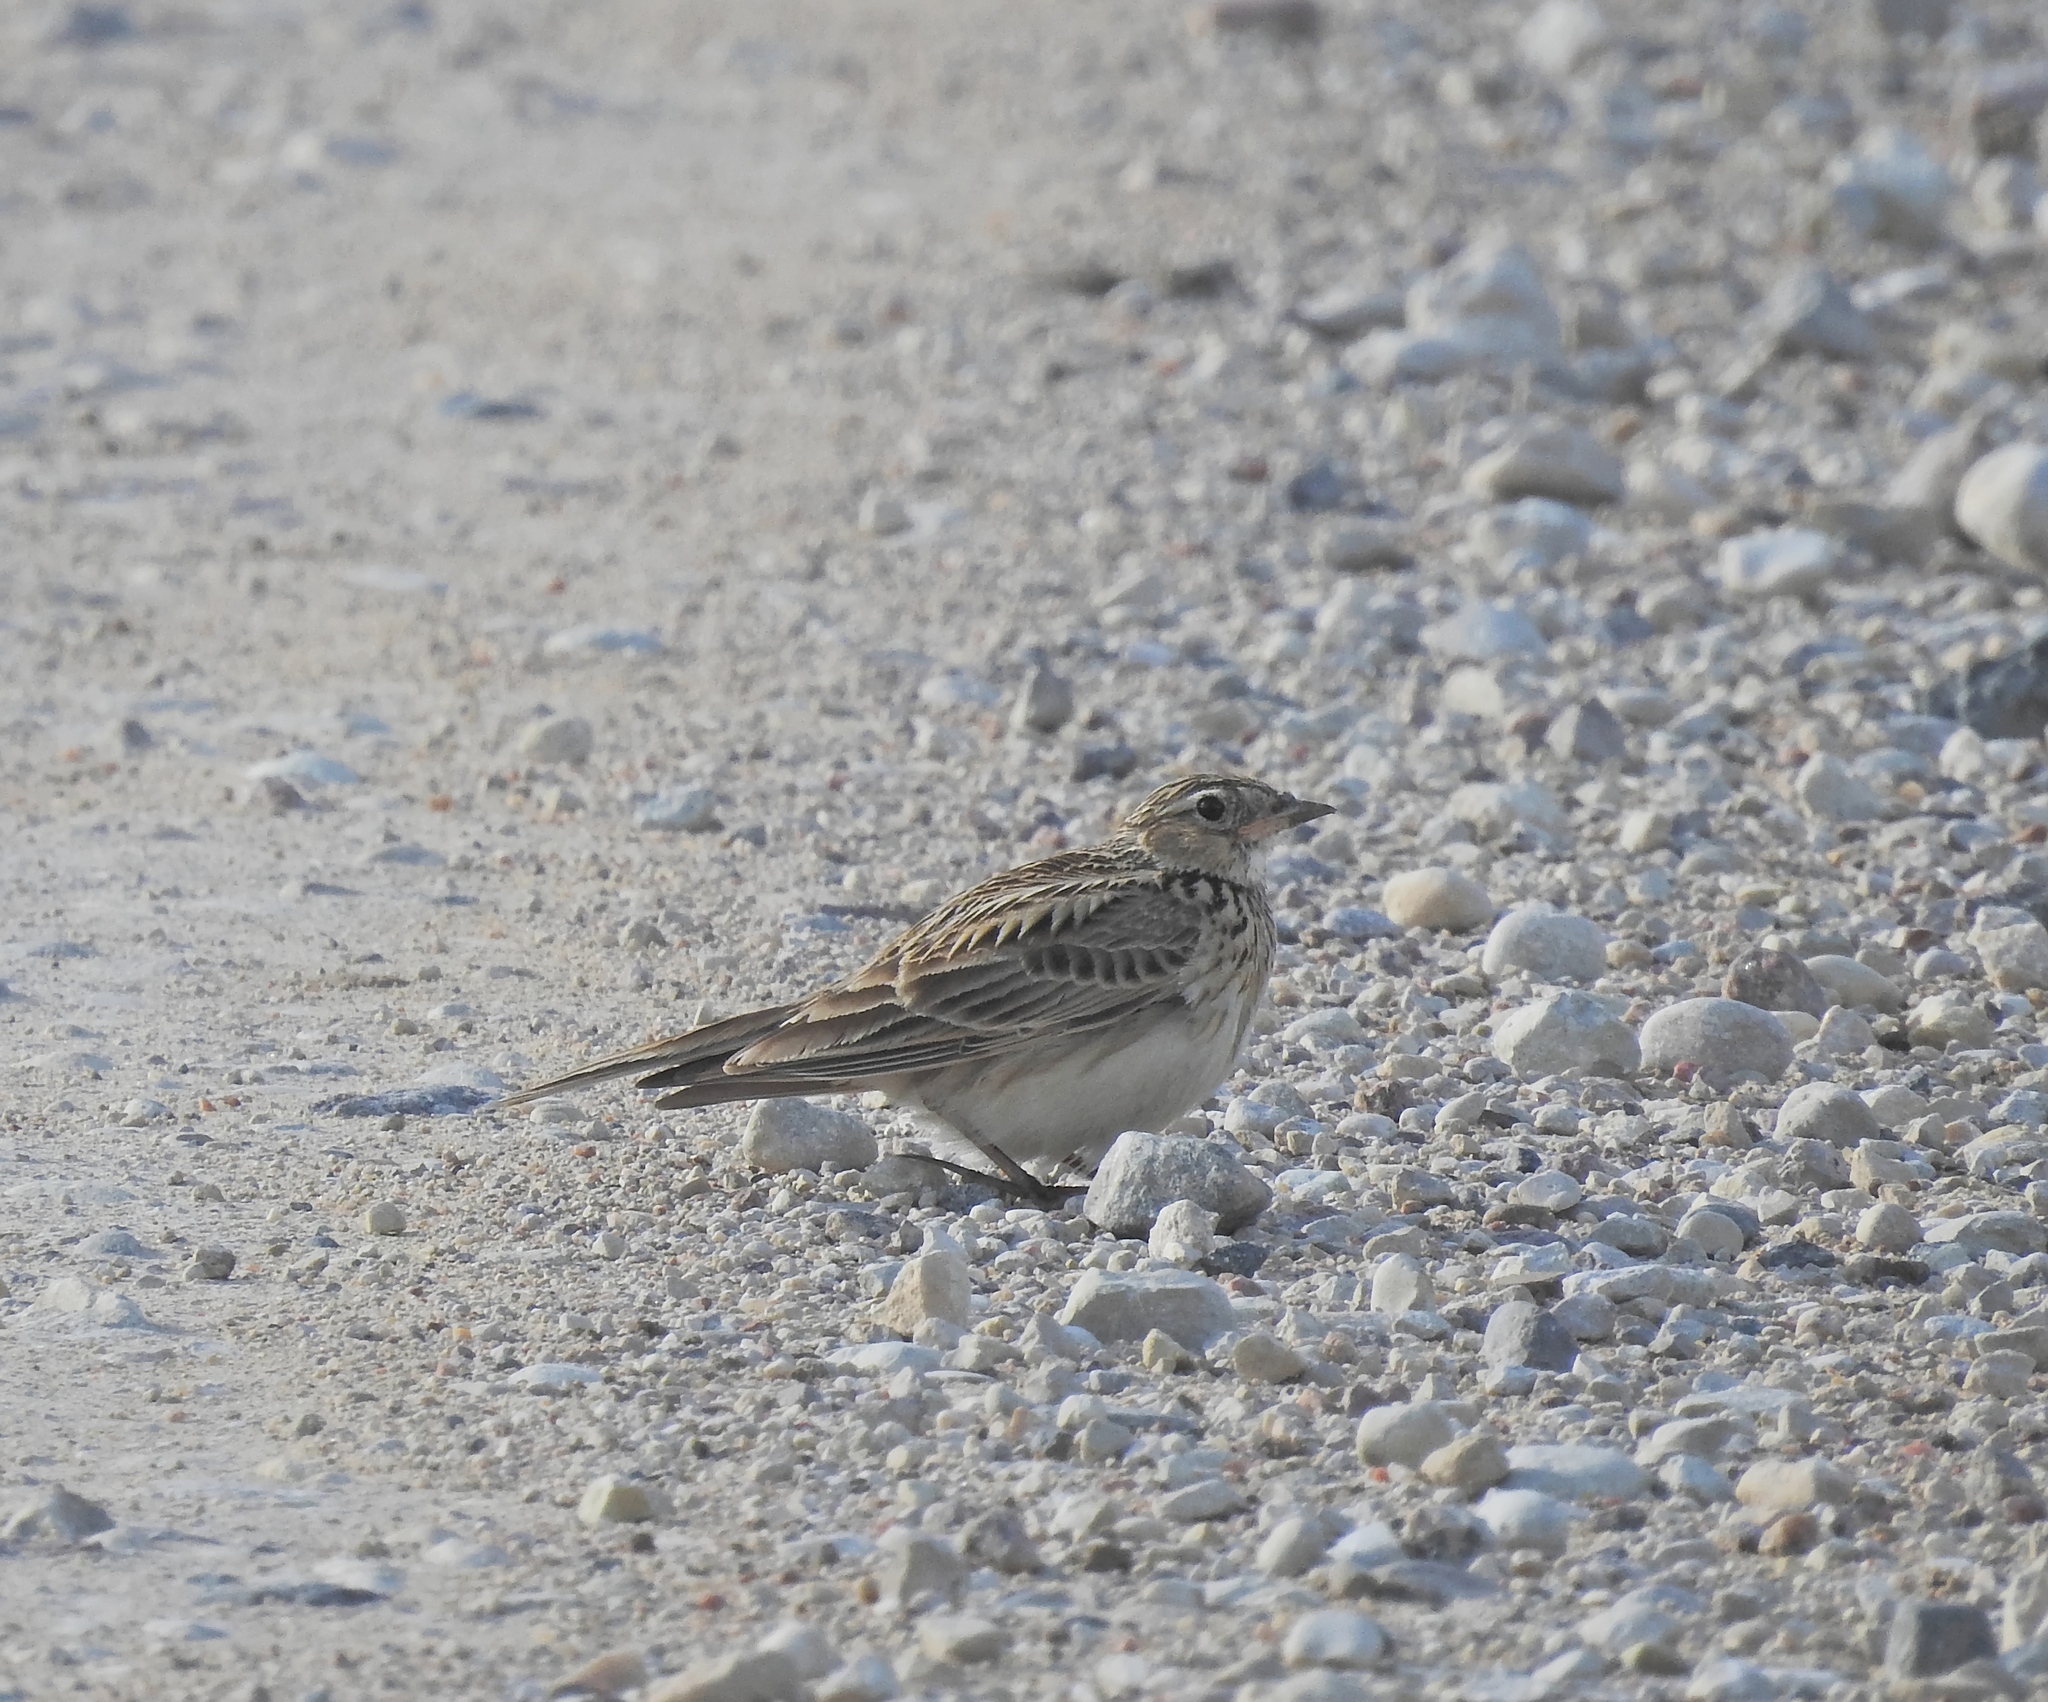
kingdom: Animalia
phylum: Chordata
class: Aves
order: Passeriformes
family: Alaudidae
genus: Alauda
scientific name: Alauda arvensis
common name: Eurasian skylark
